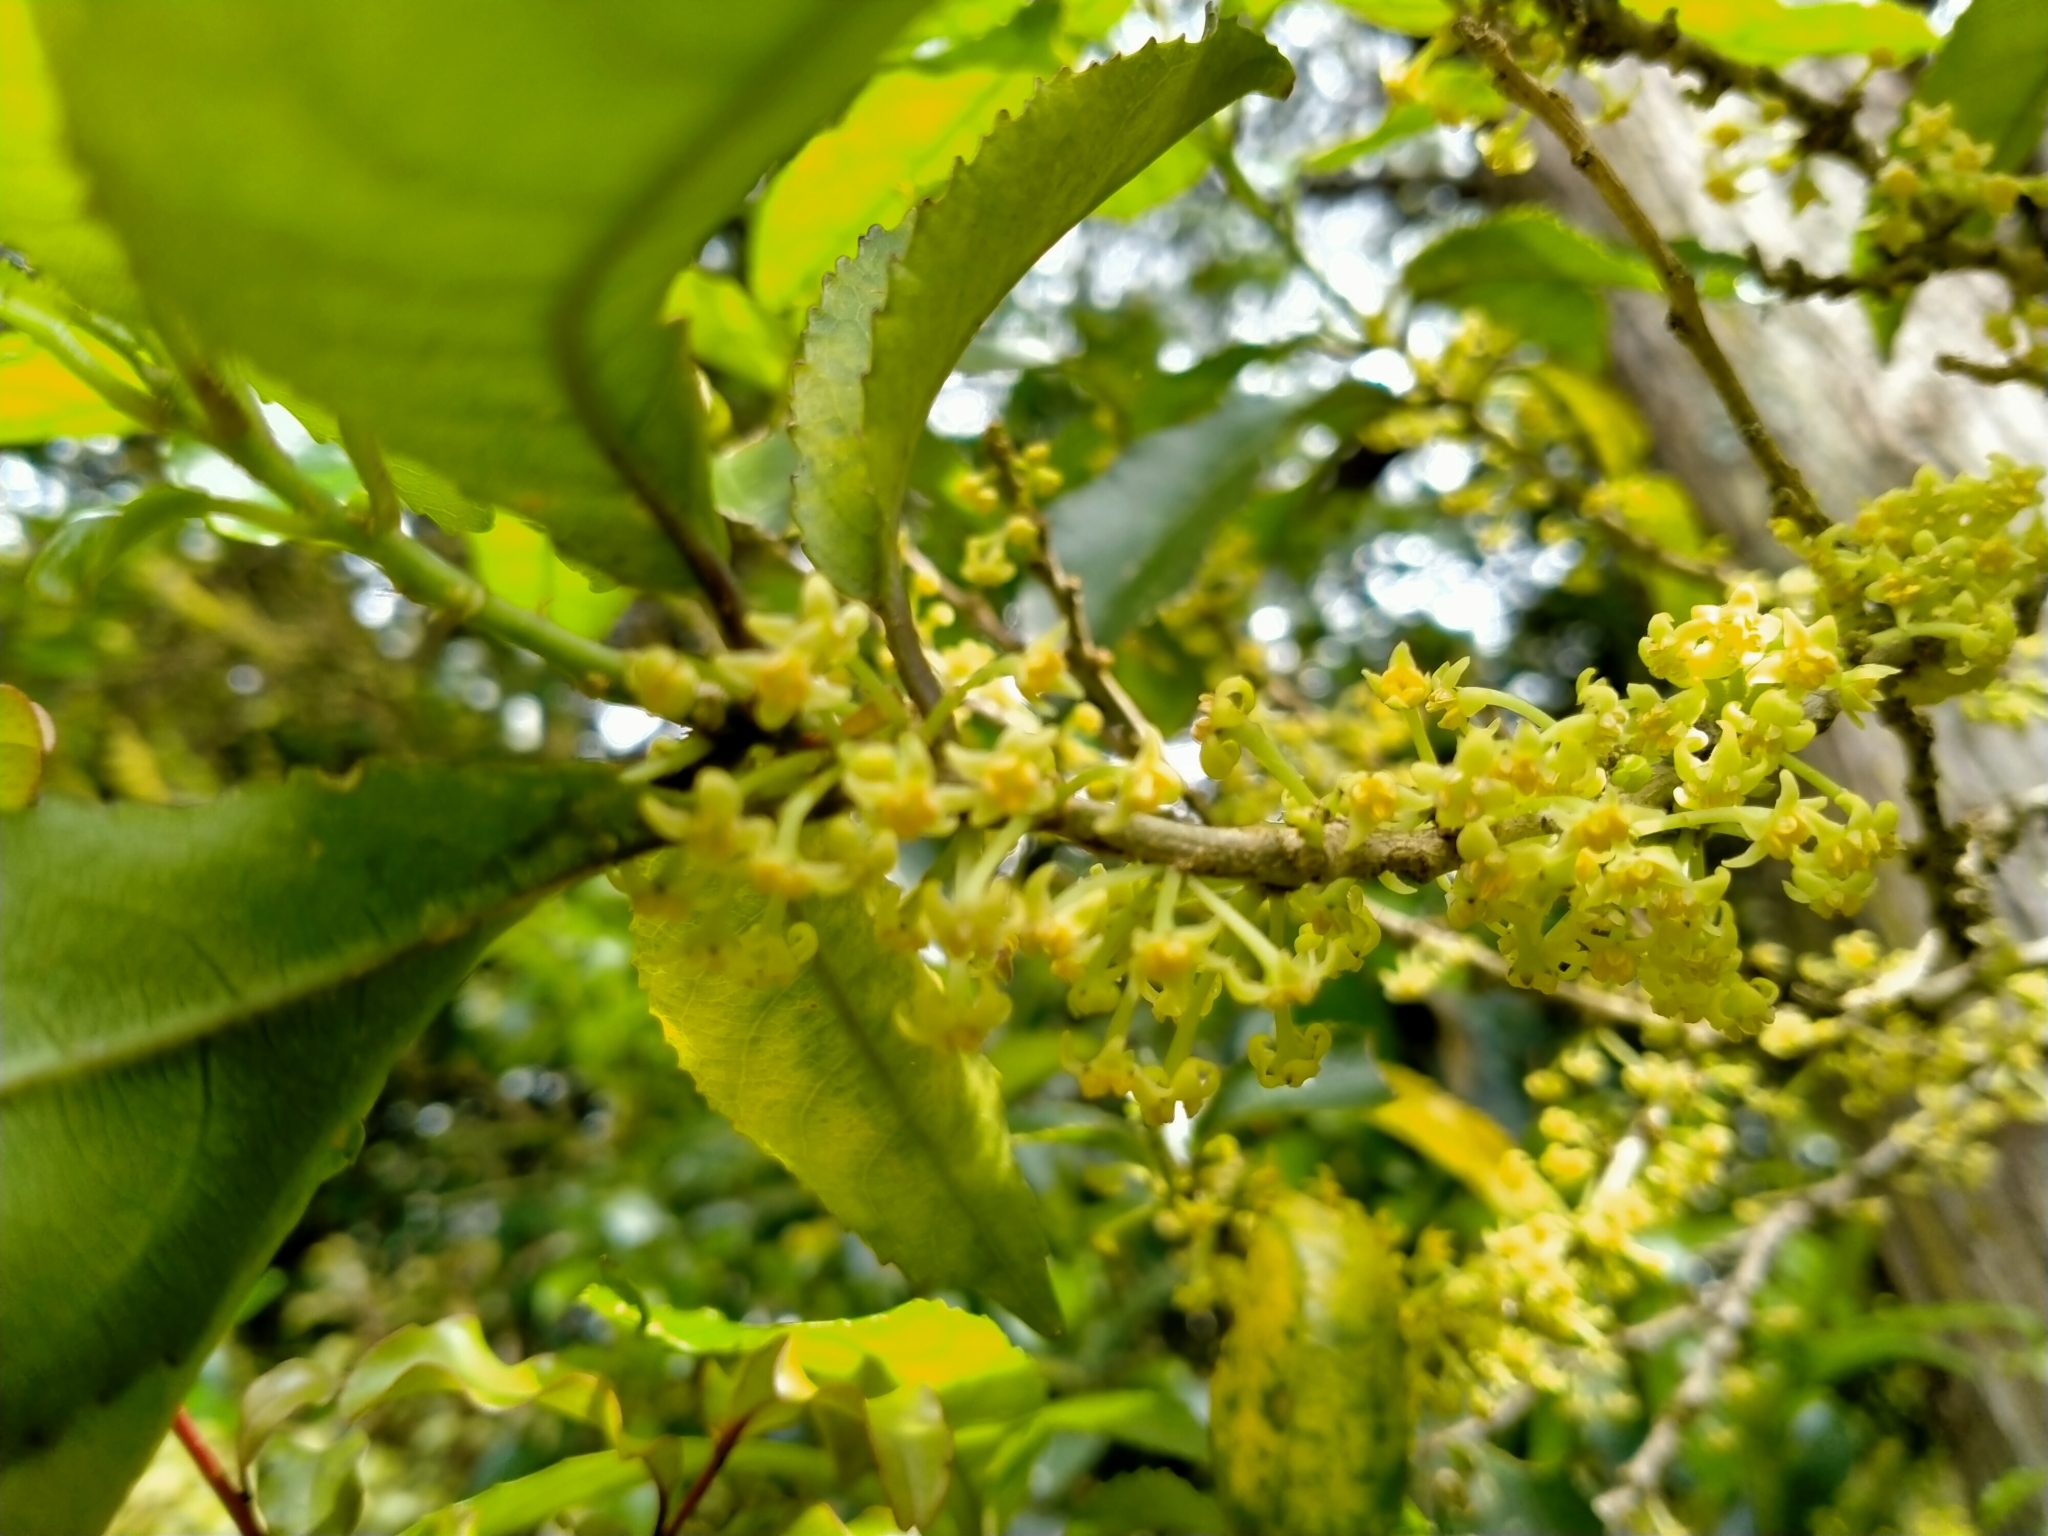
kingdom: Plantae
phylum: Tracheophyta
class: Magnoliopsida
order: Malpighiales
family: Violaceae
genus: Melicytus
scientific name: Melicytus ramiflorus
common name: Mahoe
